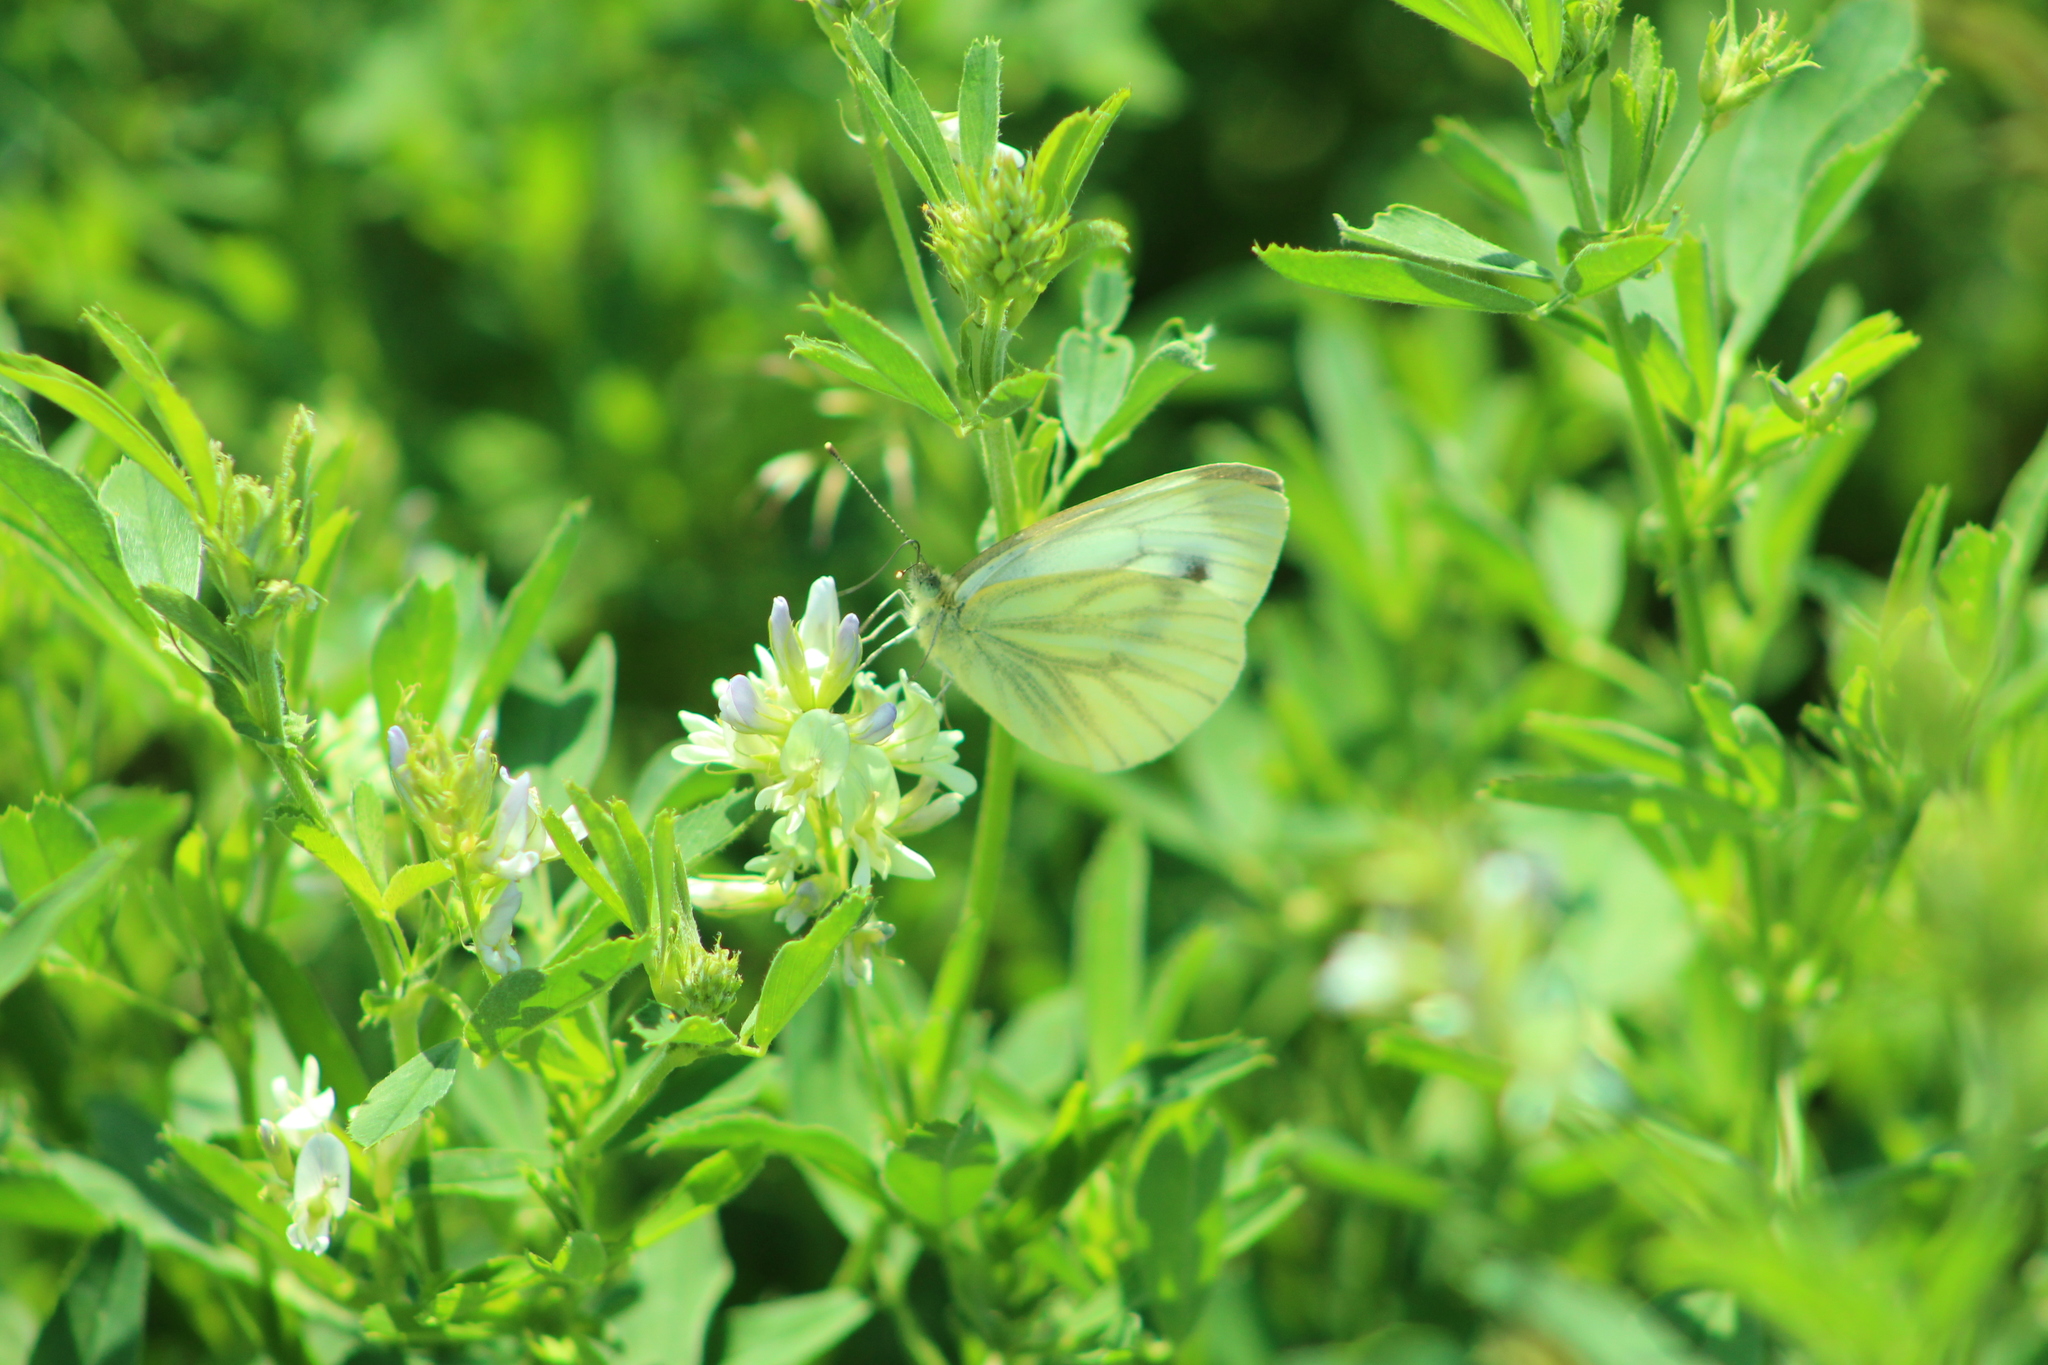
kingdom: Animalia
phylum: Arthropoda
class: Insecta
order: Lepidoptera
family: Pieridae
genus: Pieris
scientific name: Pieris napi
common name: Green-veined white
